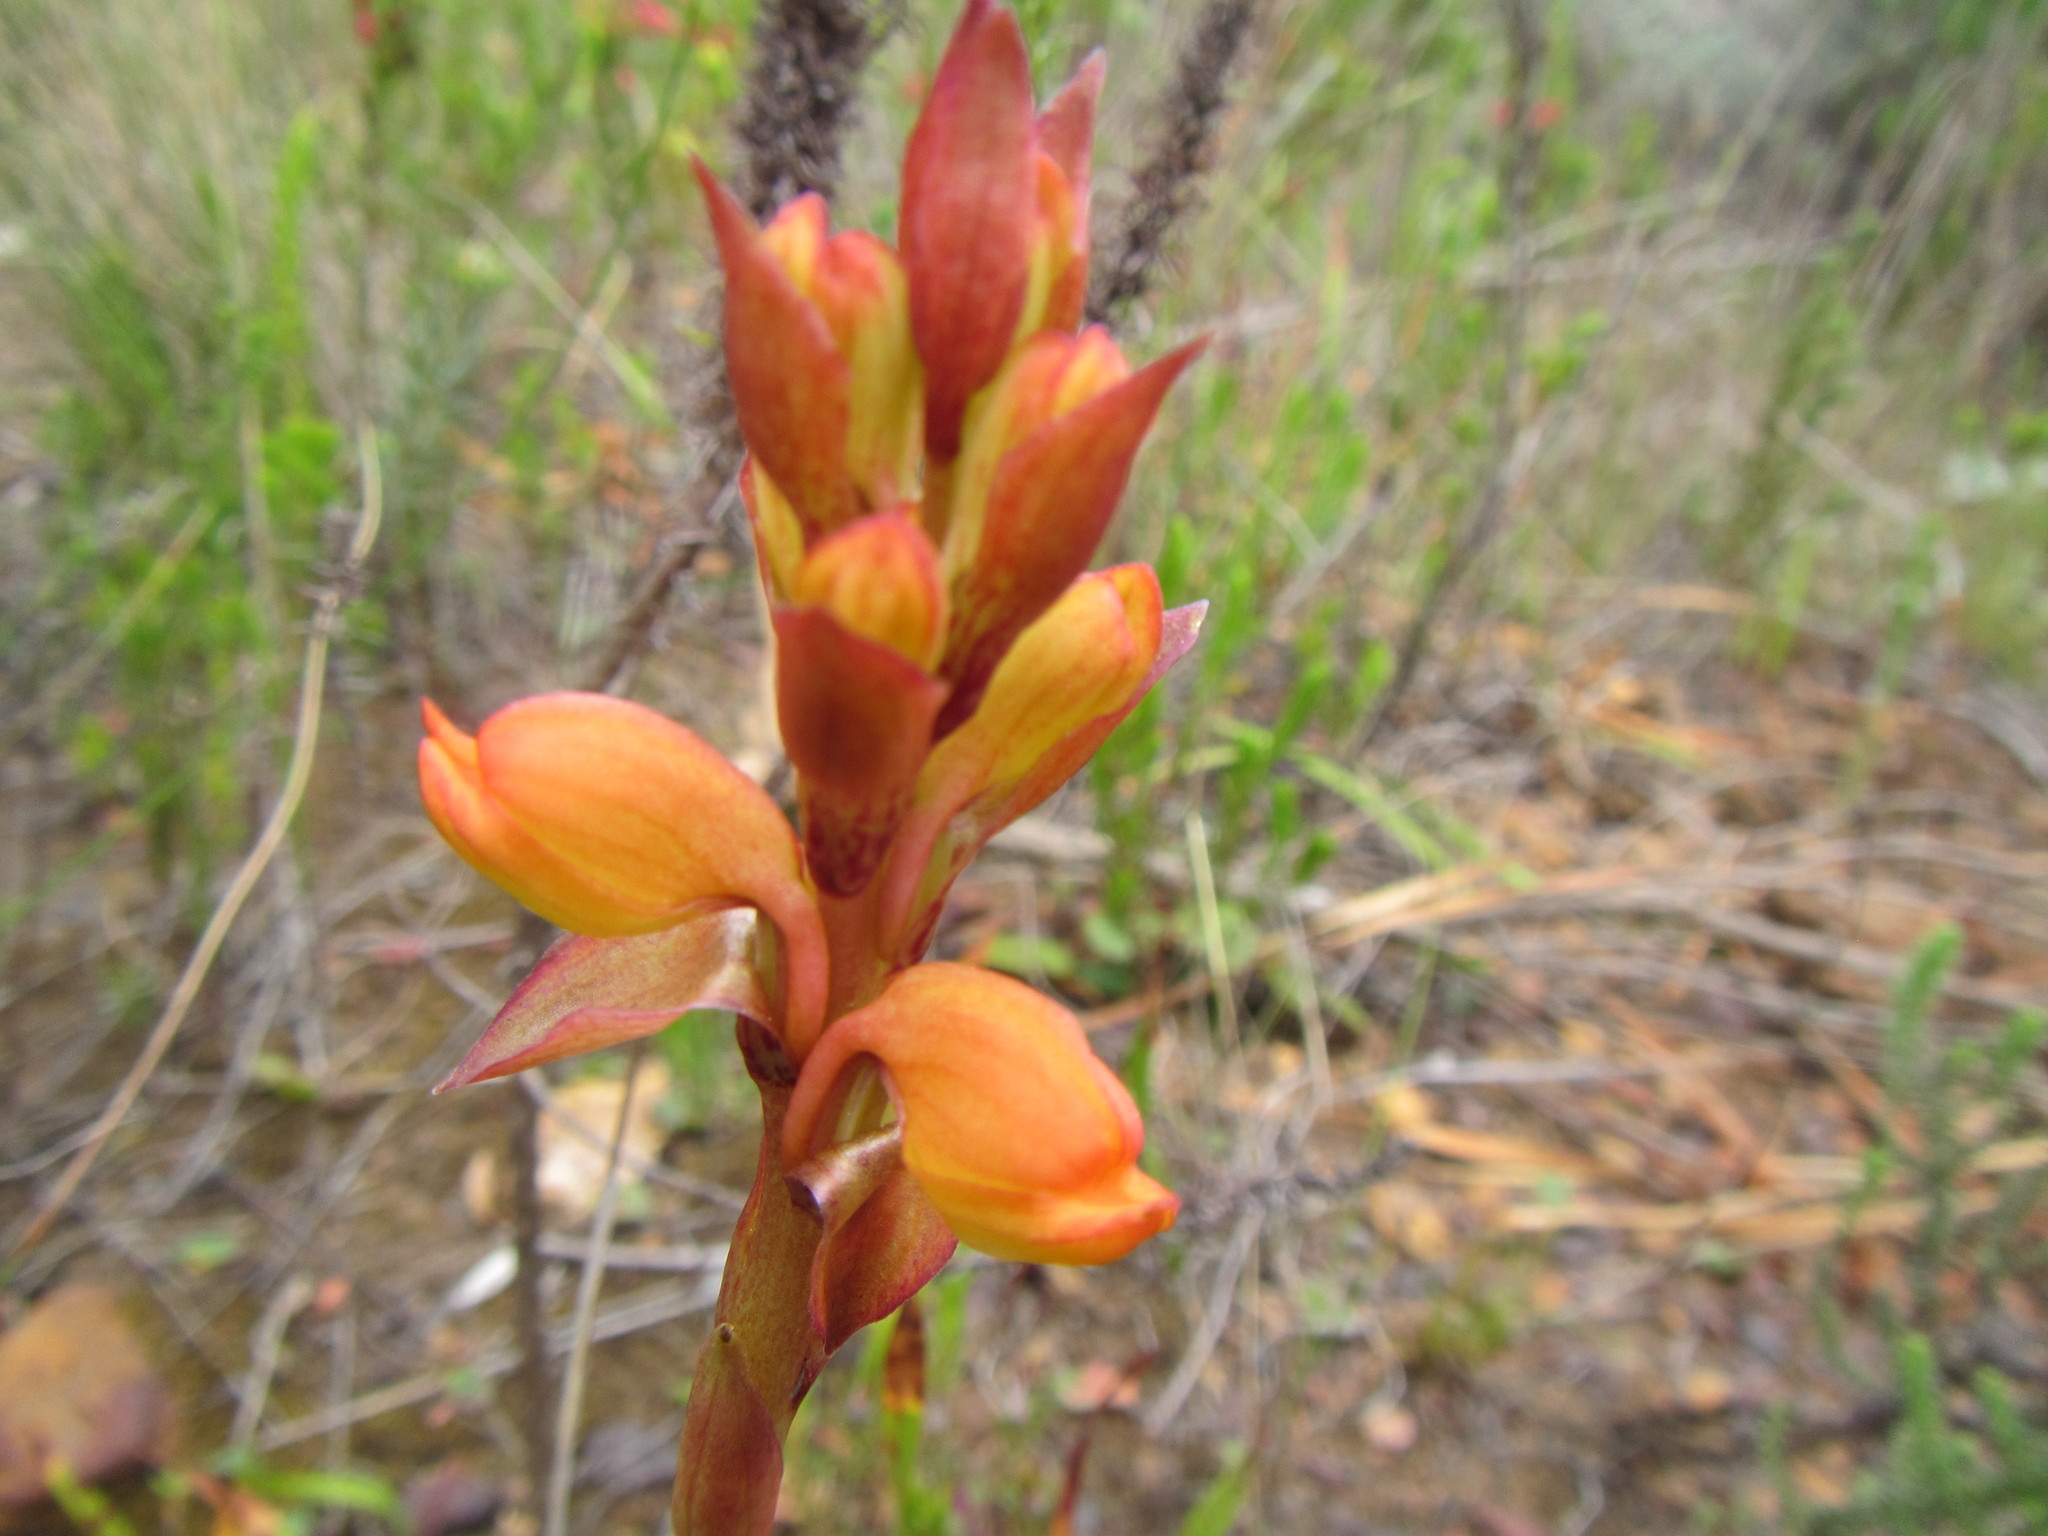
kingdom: Plantae
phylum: Tracheophyta
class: Liliopsida
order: Asparagales
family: Orchidaceae
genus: Satyrium
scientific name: Satyrium coriifolium
